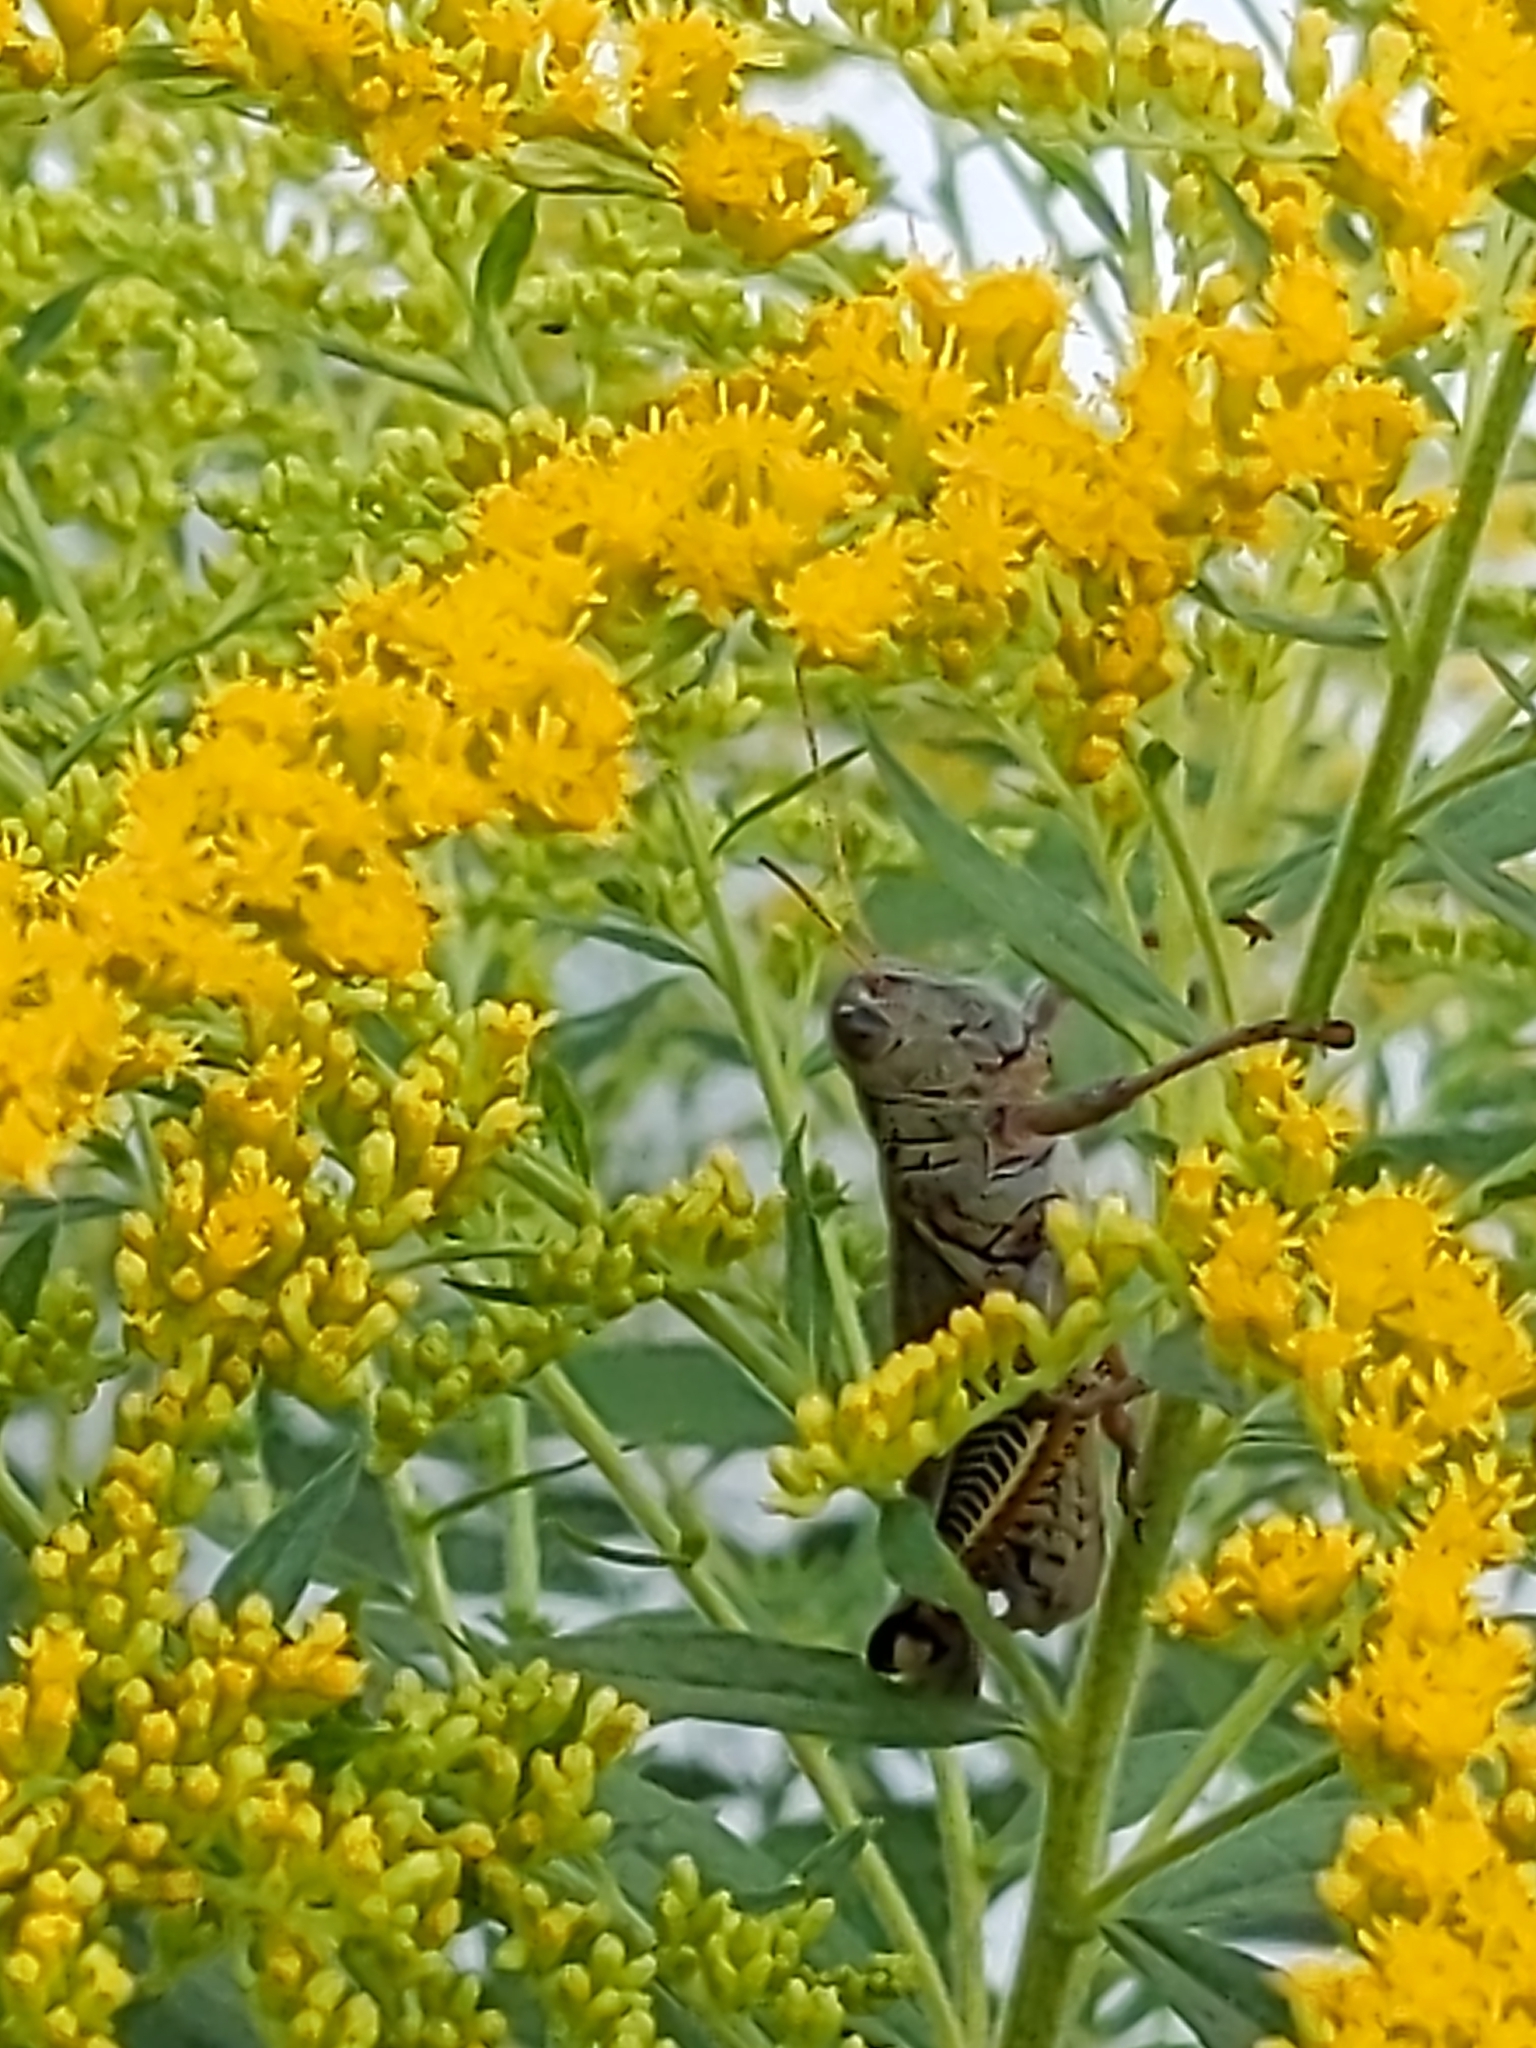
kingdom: Animalia
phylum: Arthropoda
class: Insecta
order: Orthoptera
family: Acrididae
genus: Melanoplus
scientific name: Melanoplus differentialis
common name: Differential grasshopper
